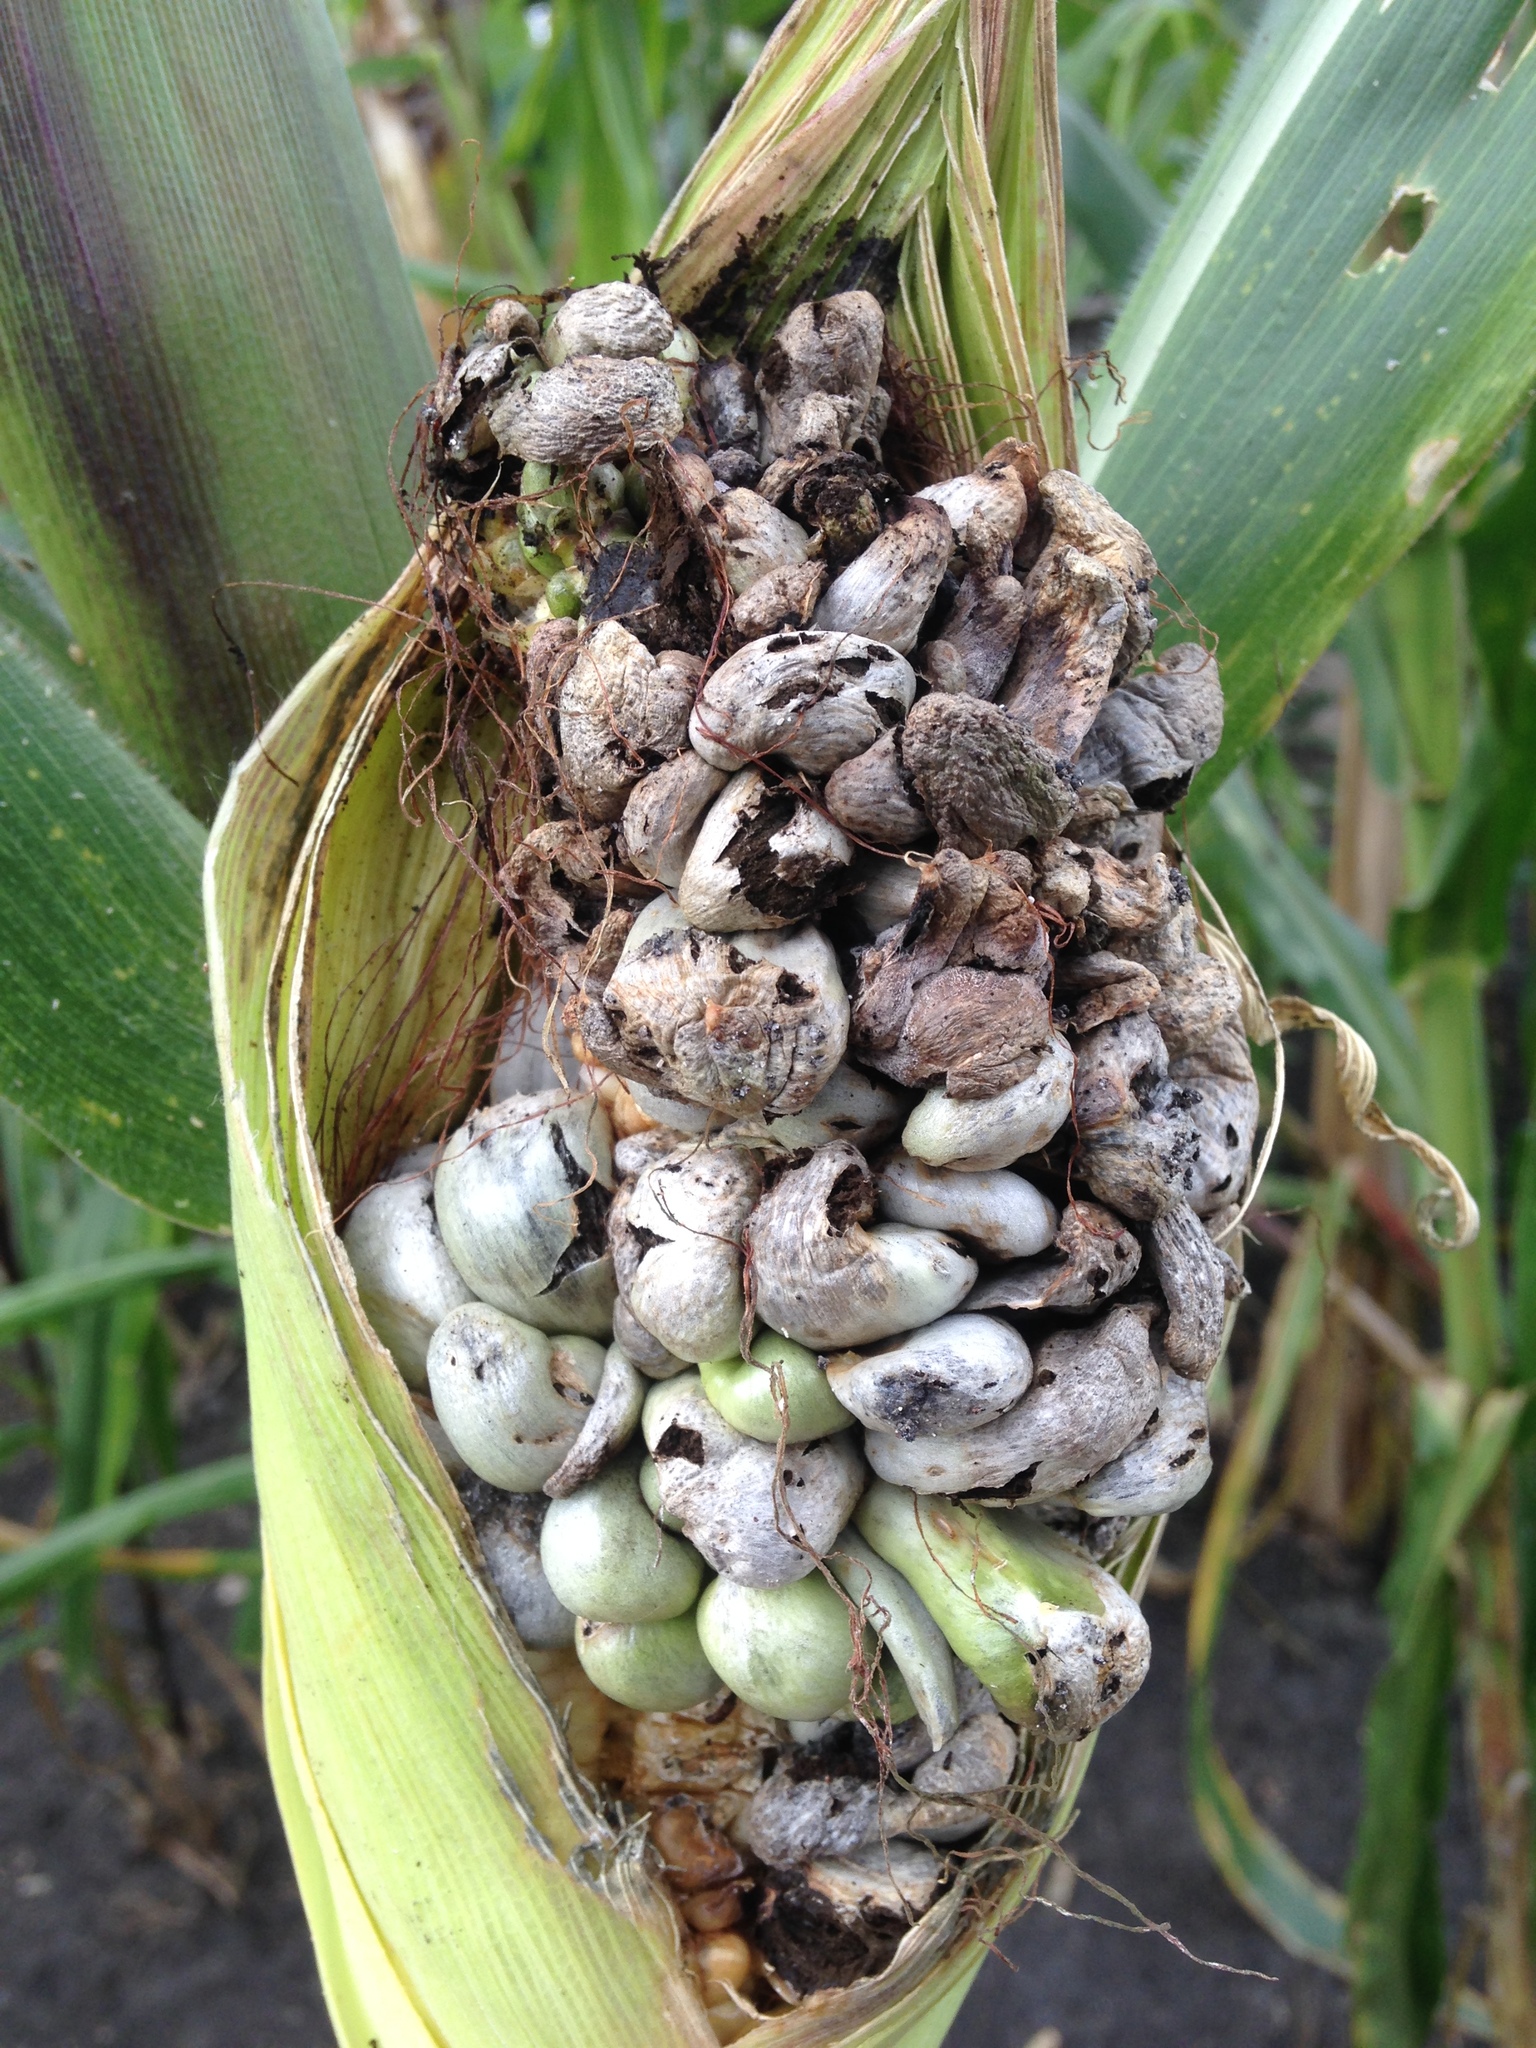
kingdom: Fungi
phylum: Basidiomycota
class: Ustilaginomycetes
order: Ustilaginales
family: Ustilaginaceae
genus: Mycosarcoma
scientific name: Mycosarcoma maydis
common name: Corn smut
